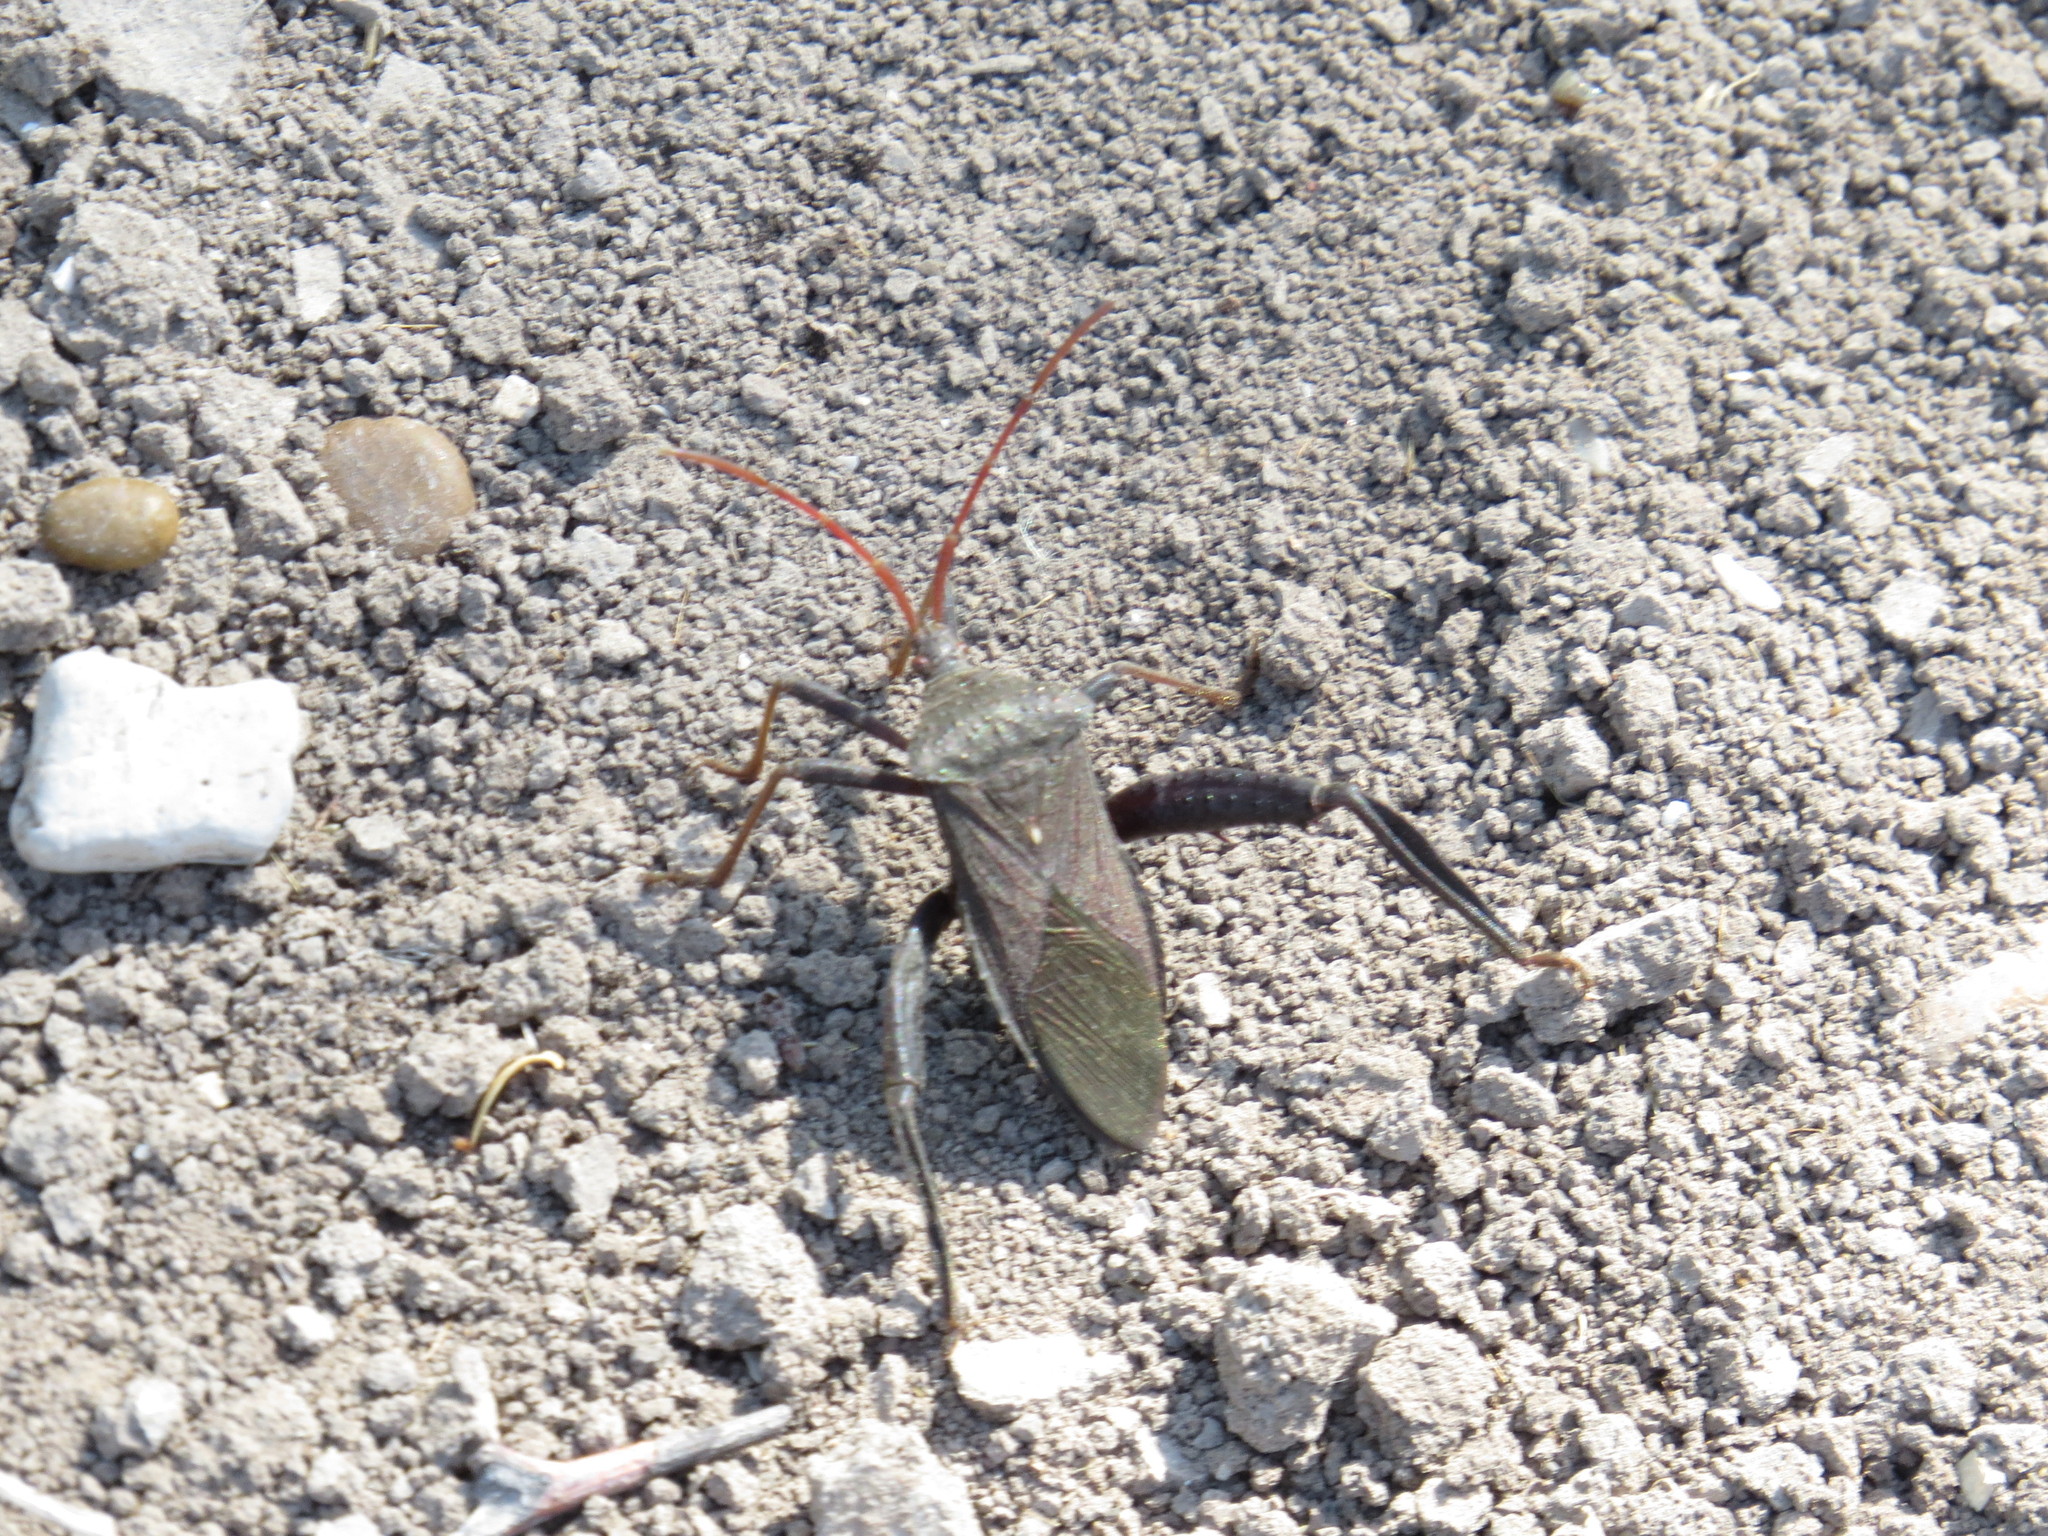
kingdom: Animalia
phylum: Arthropoda
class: Insecta
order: Hemiptera
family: Coreidae
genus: Acanthocephala
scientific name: Acanthocephala femorata
